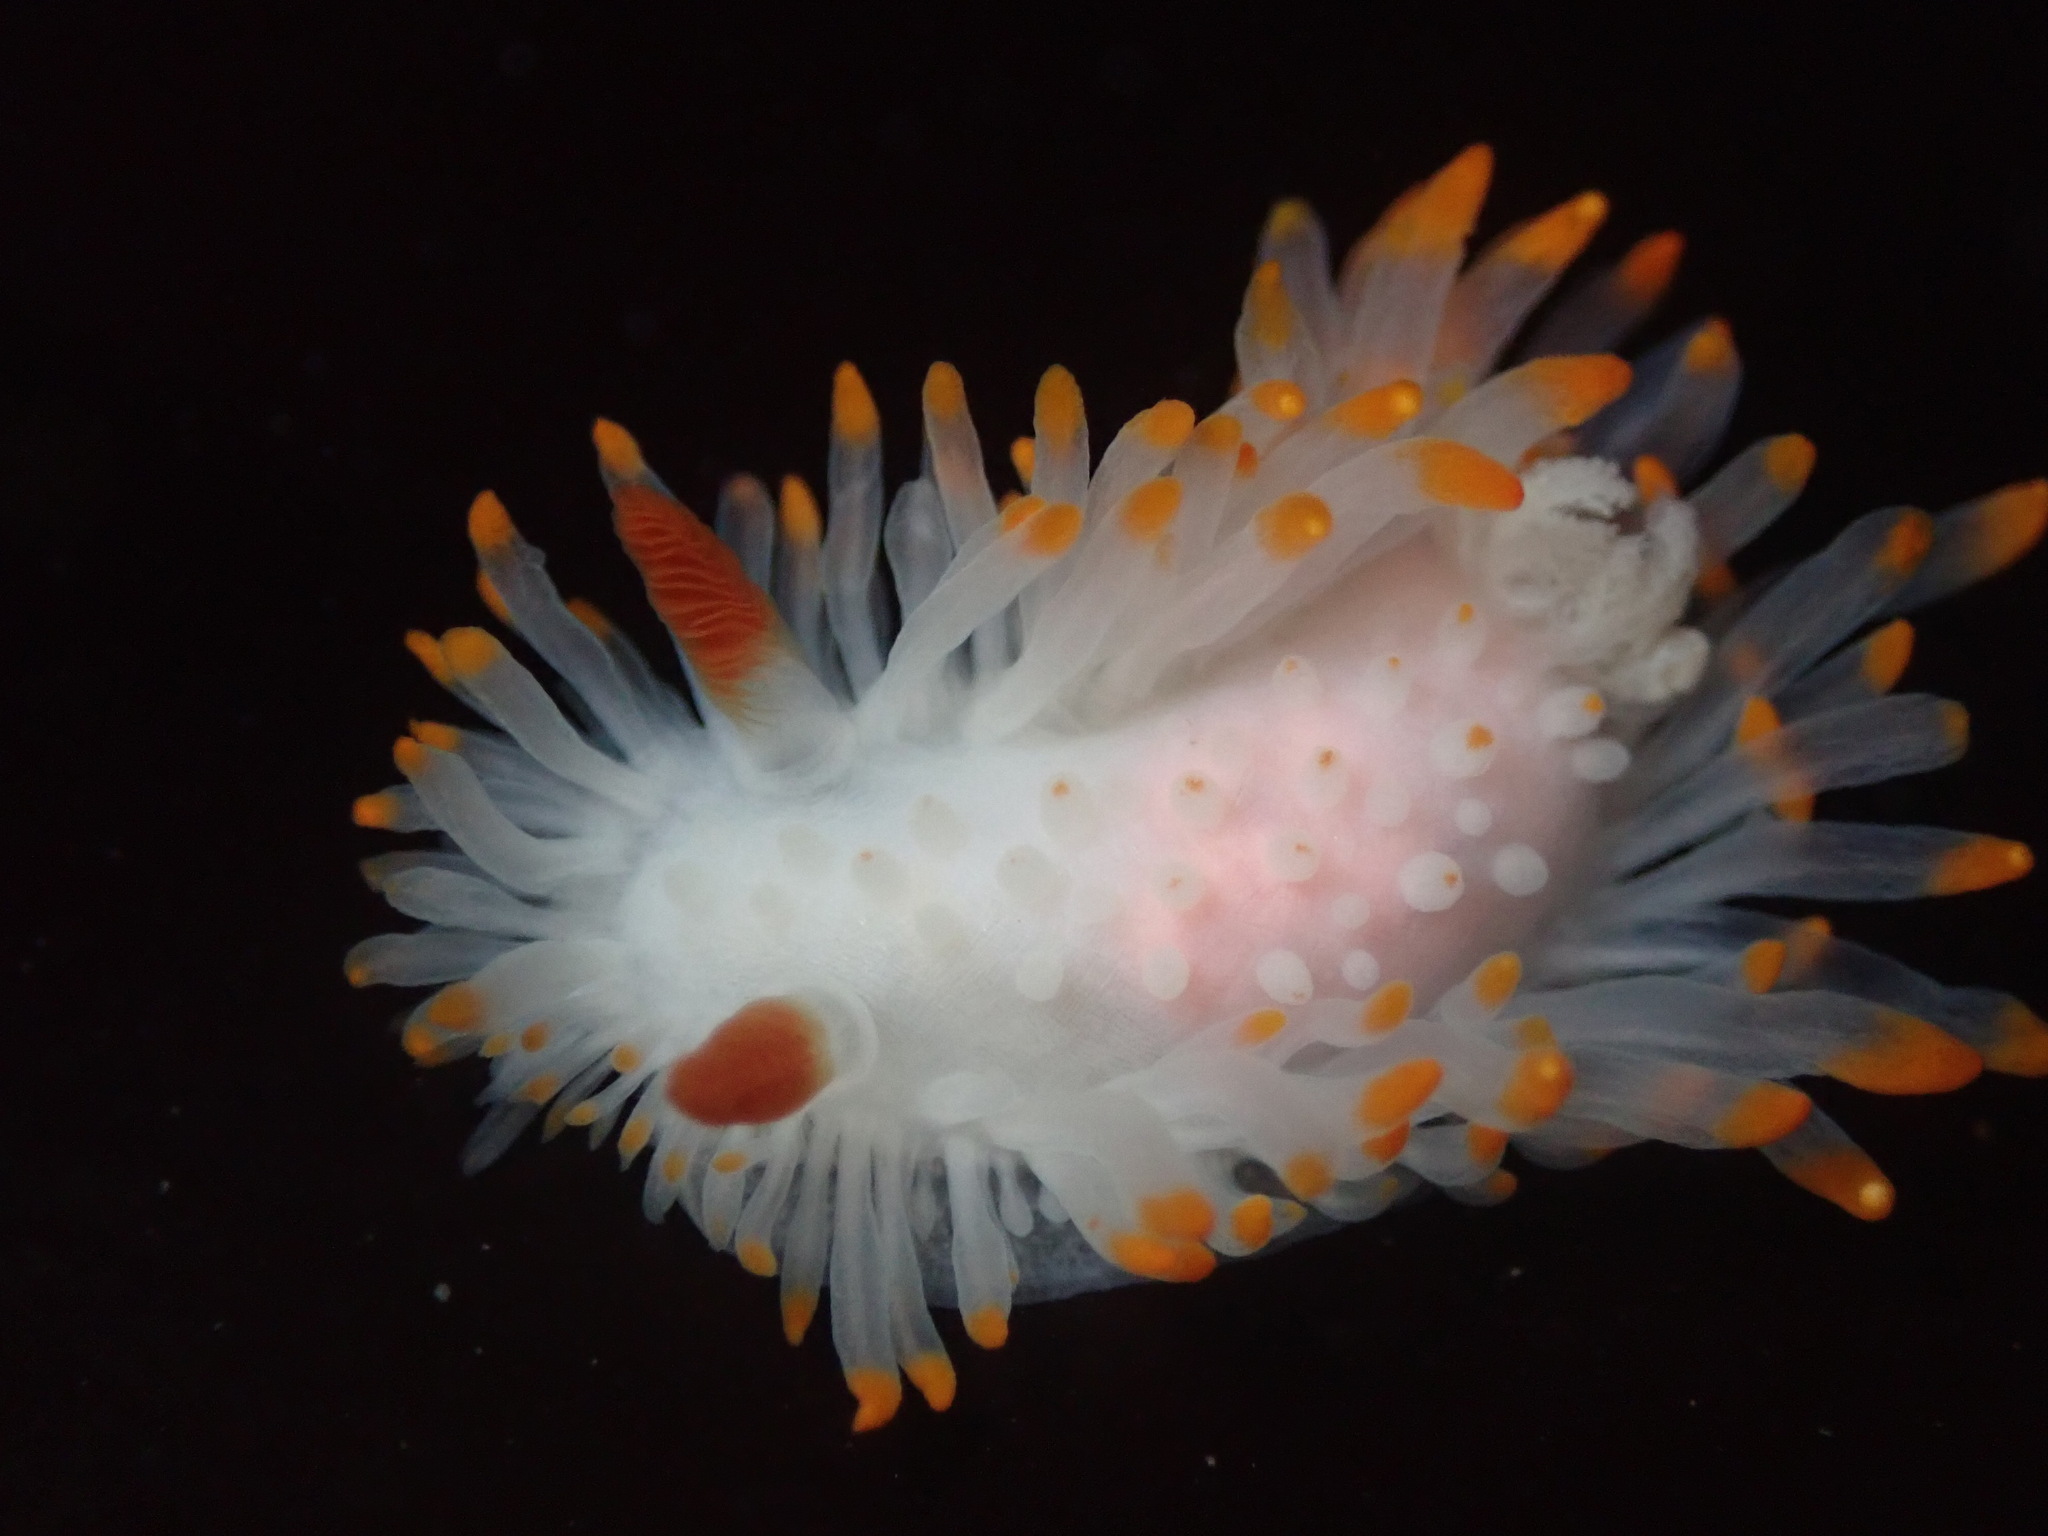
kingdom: Animalia
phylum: Mollusca
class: Gastropoda
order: Nudibranchia
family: Polyceridae
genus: Limacia
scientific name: Limacia cockerelli
